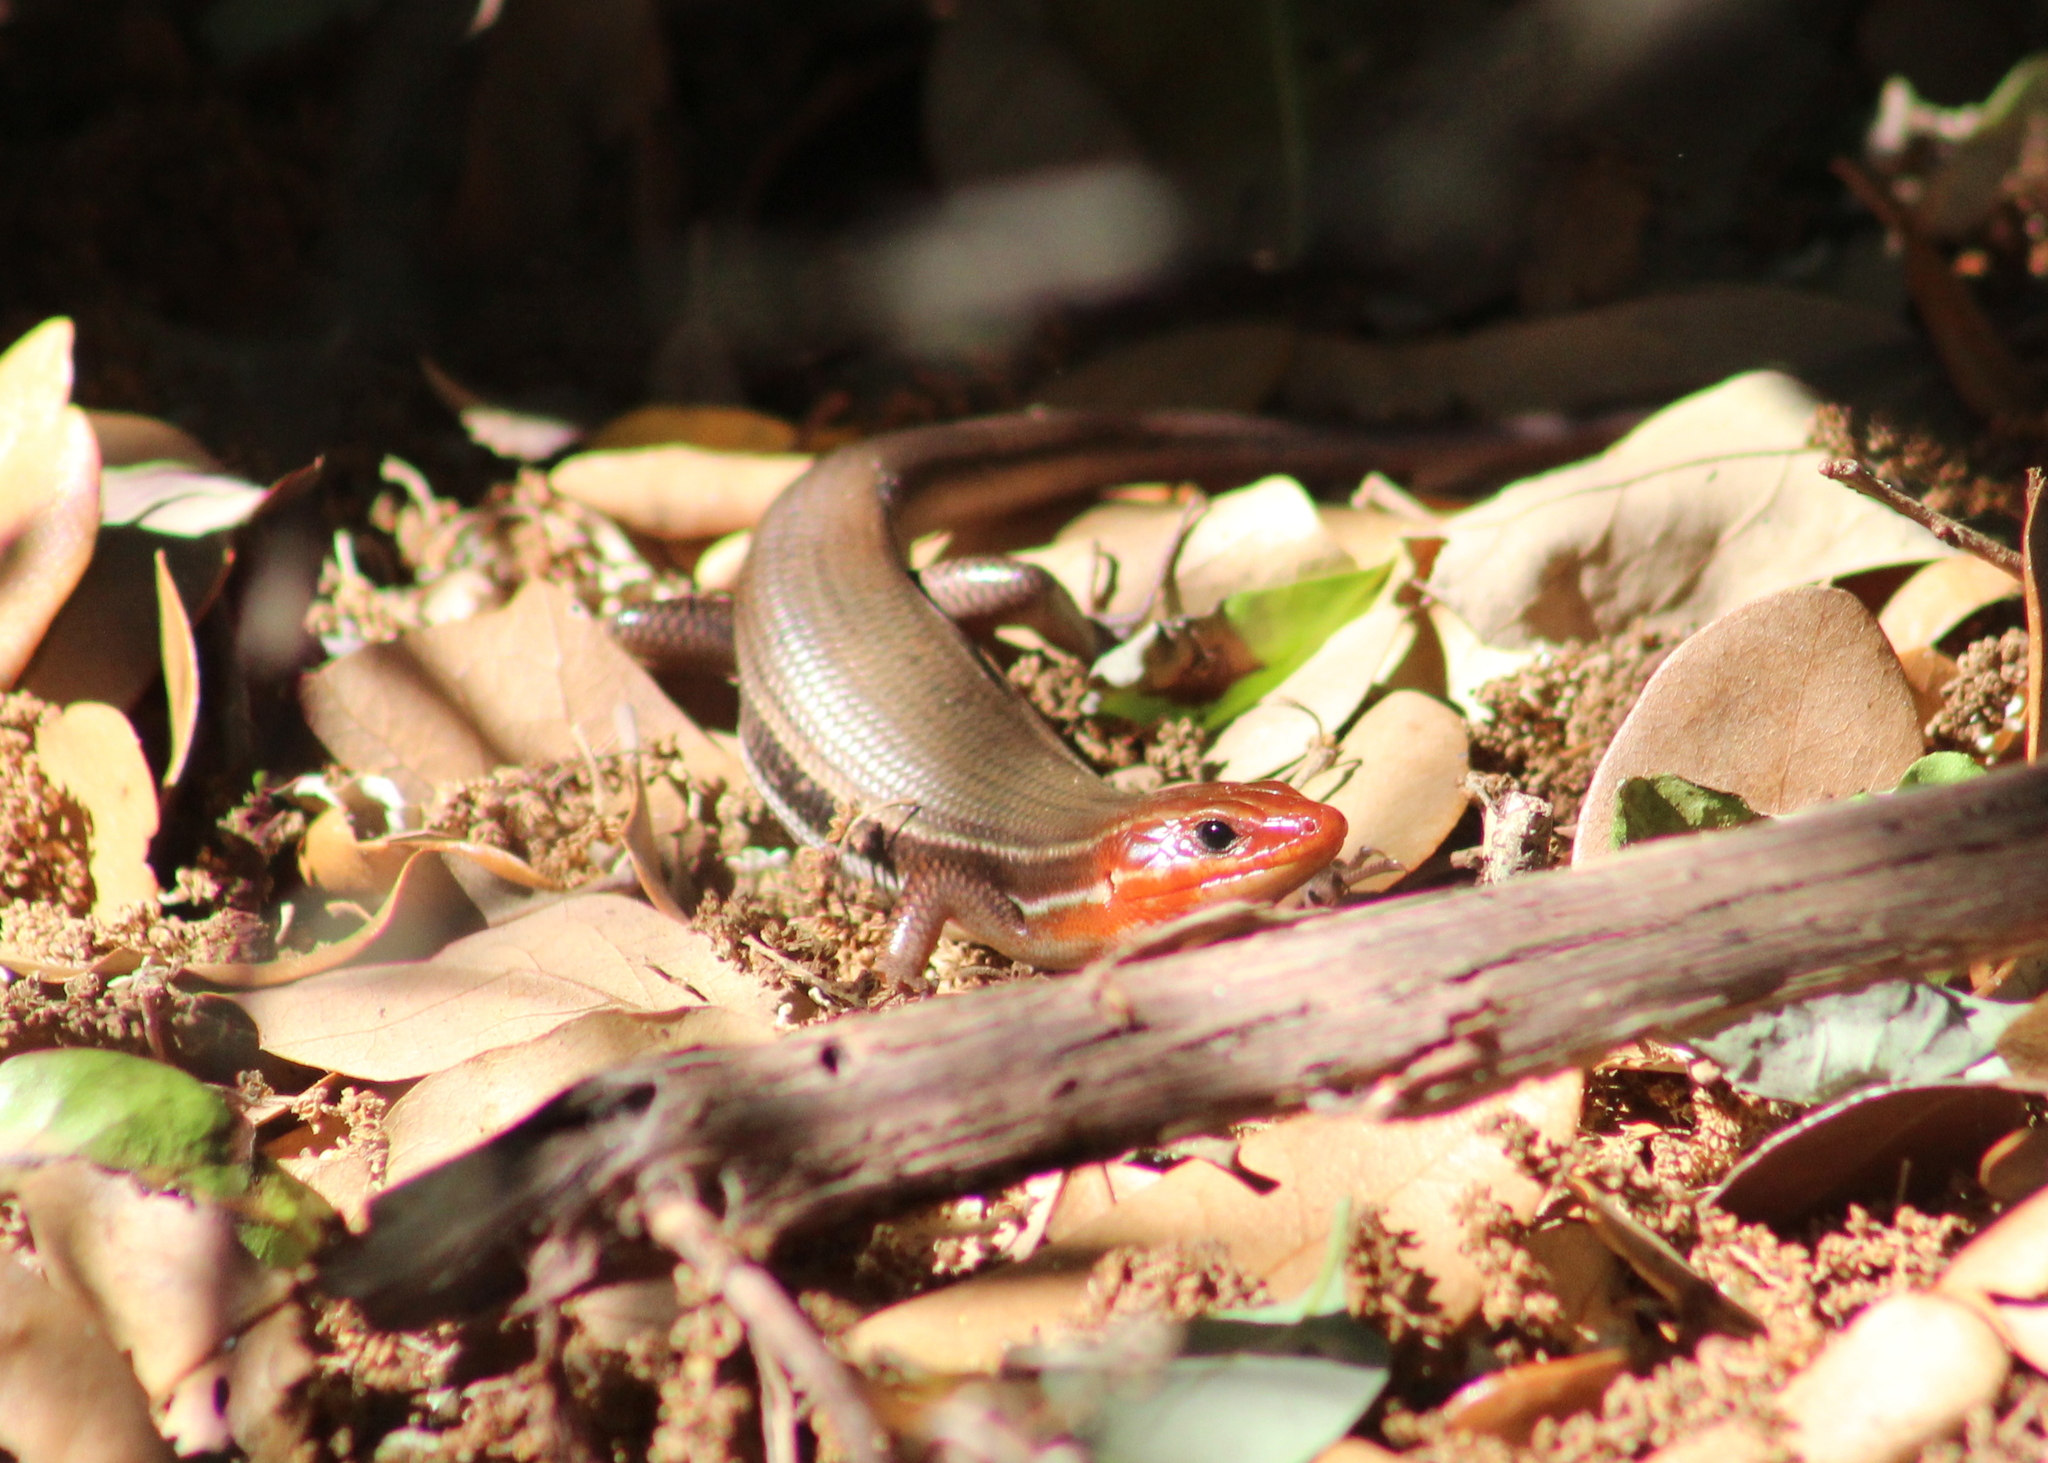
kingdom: Animalia
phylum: Chordata
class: Squamata
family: Scincidae
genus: Plestiodon
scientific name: Plestiodon inexpectatus
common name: Southeastern five-lined skink
